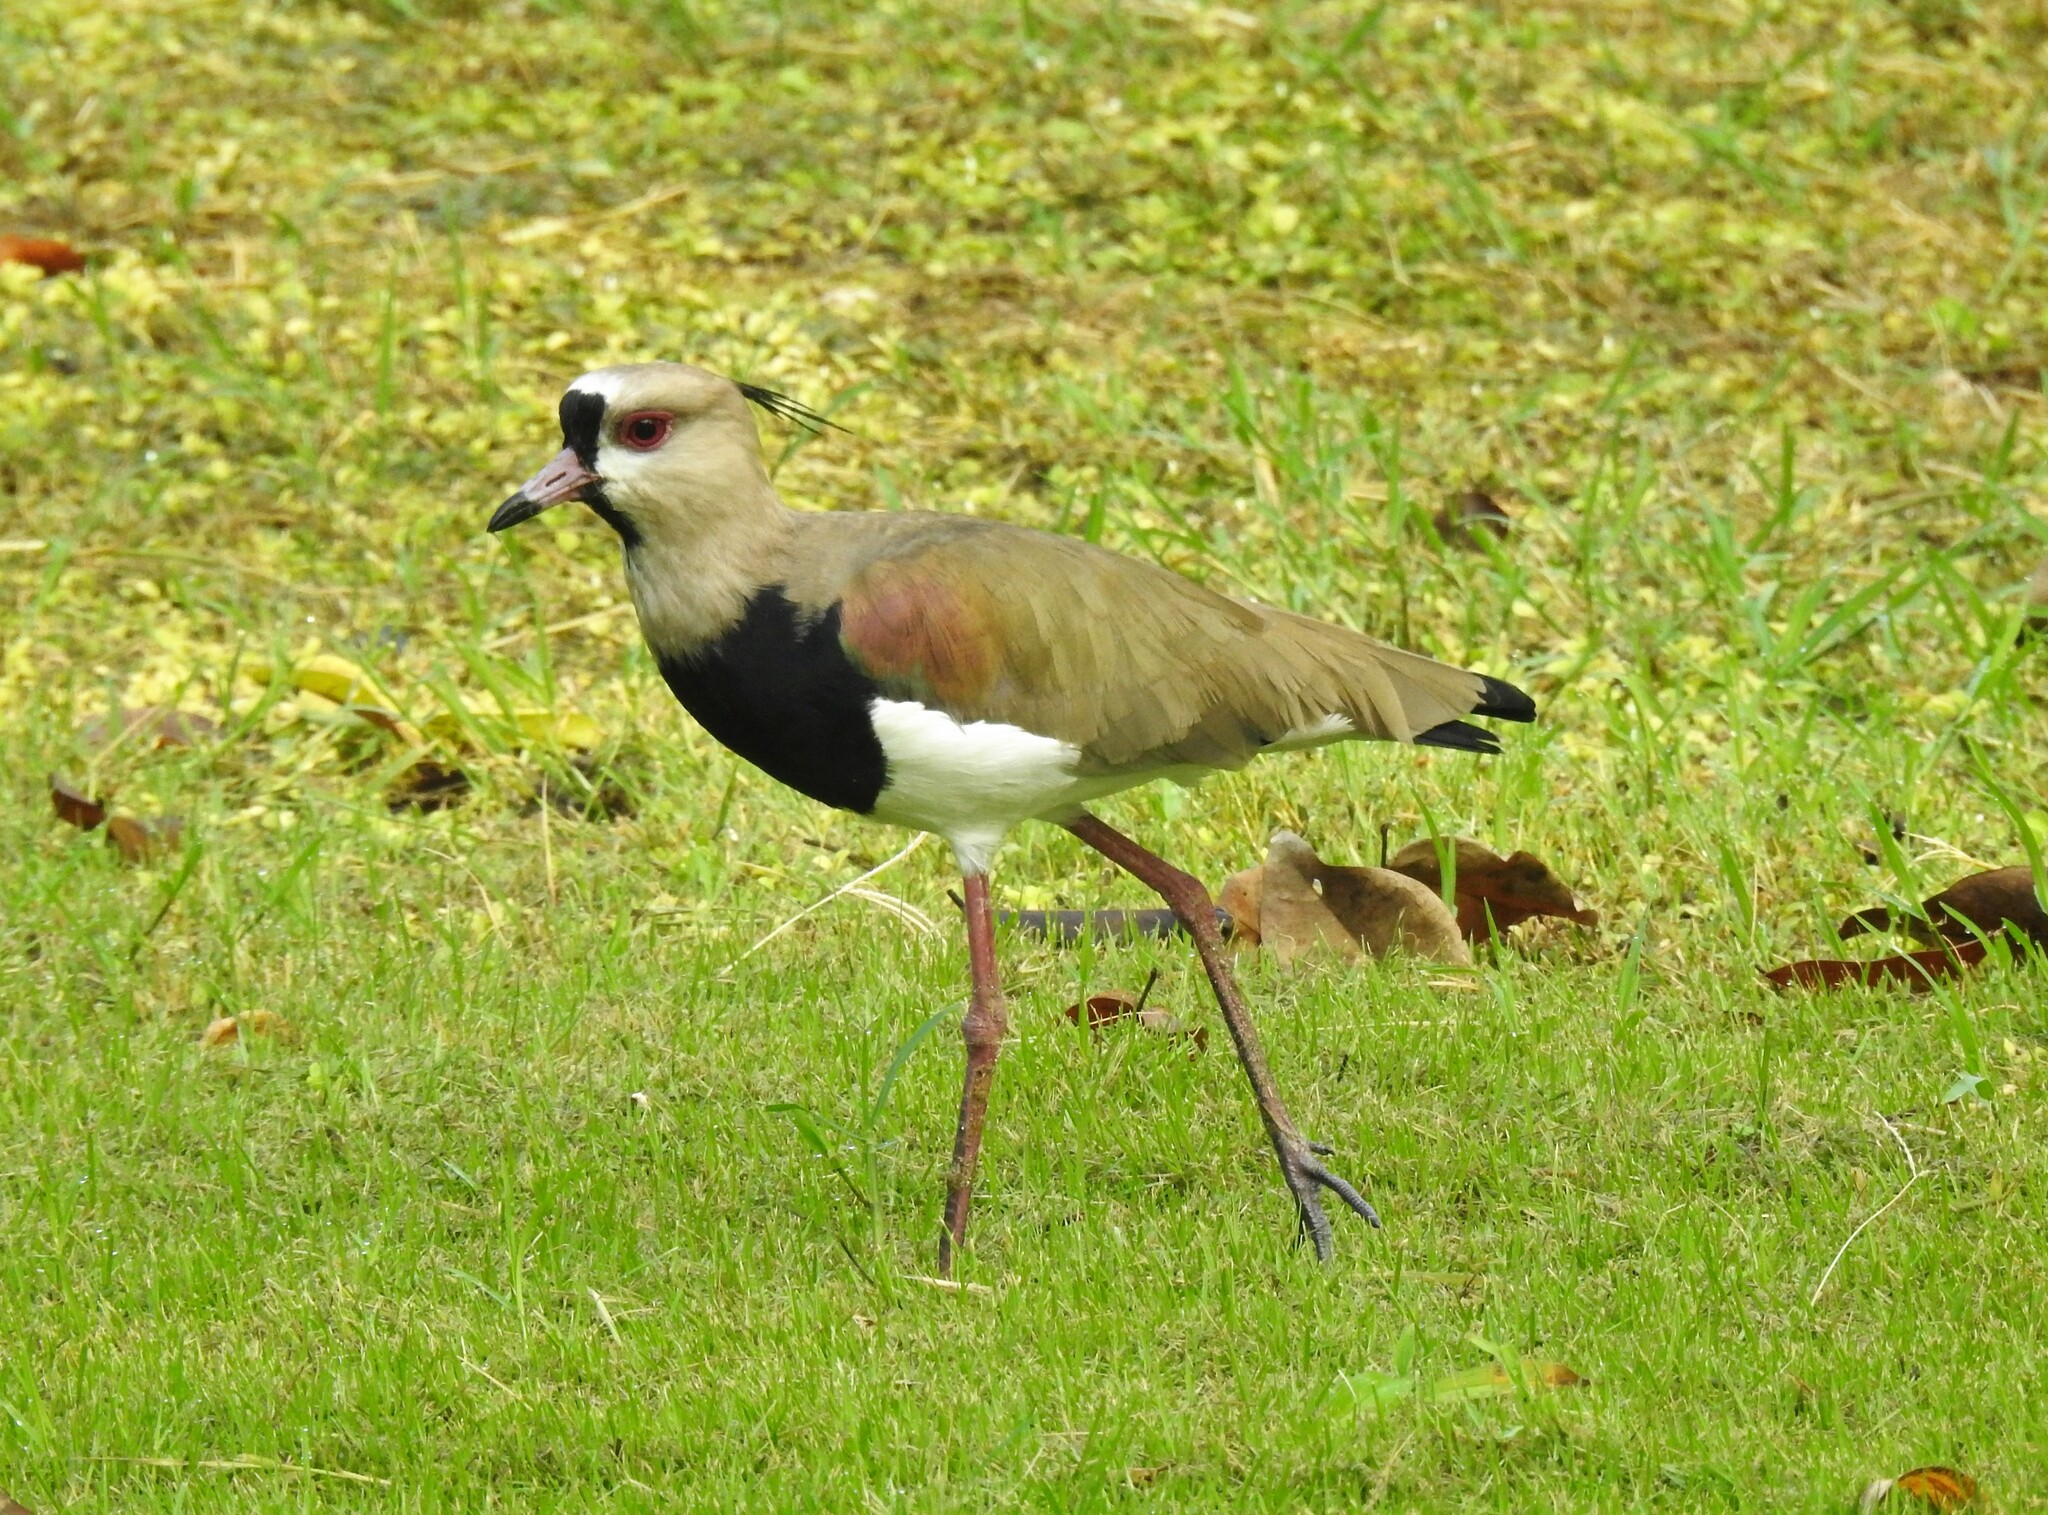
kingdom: Animalia
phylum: Chordata
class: Aves
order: Charadriiformes
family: Charadriidae
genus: Vanellus
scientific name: Vanellus chilensis
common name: Southern lapwing
